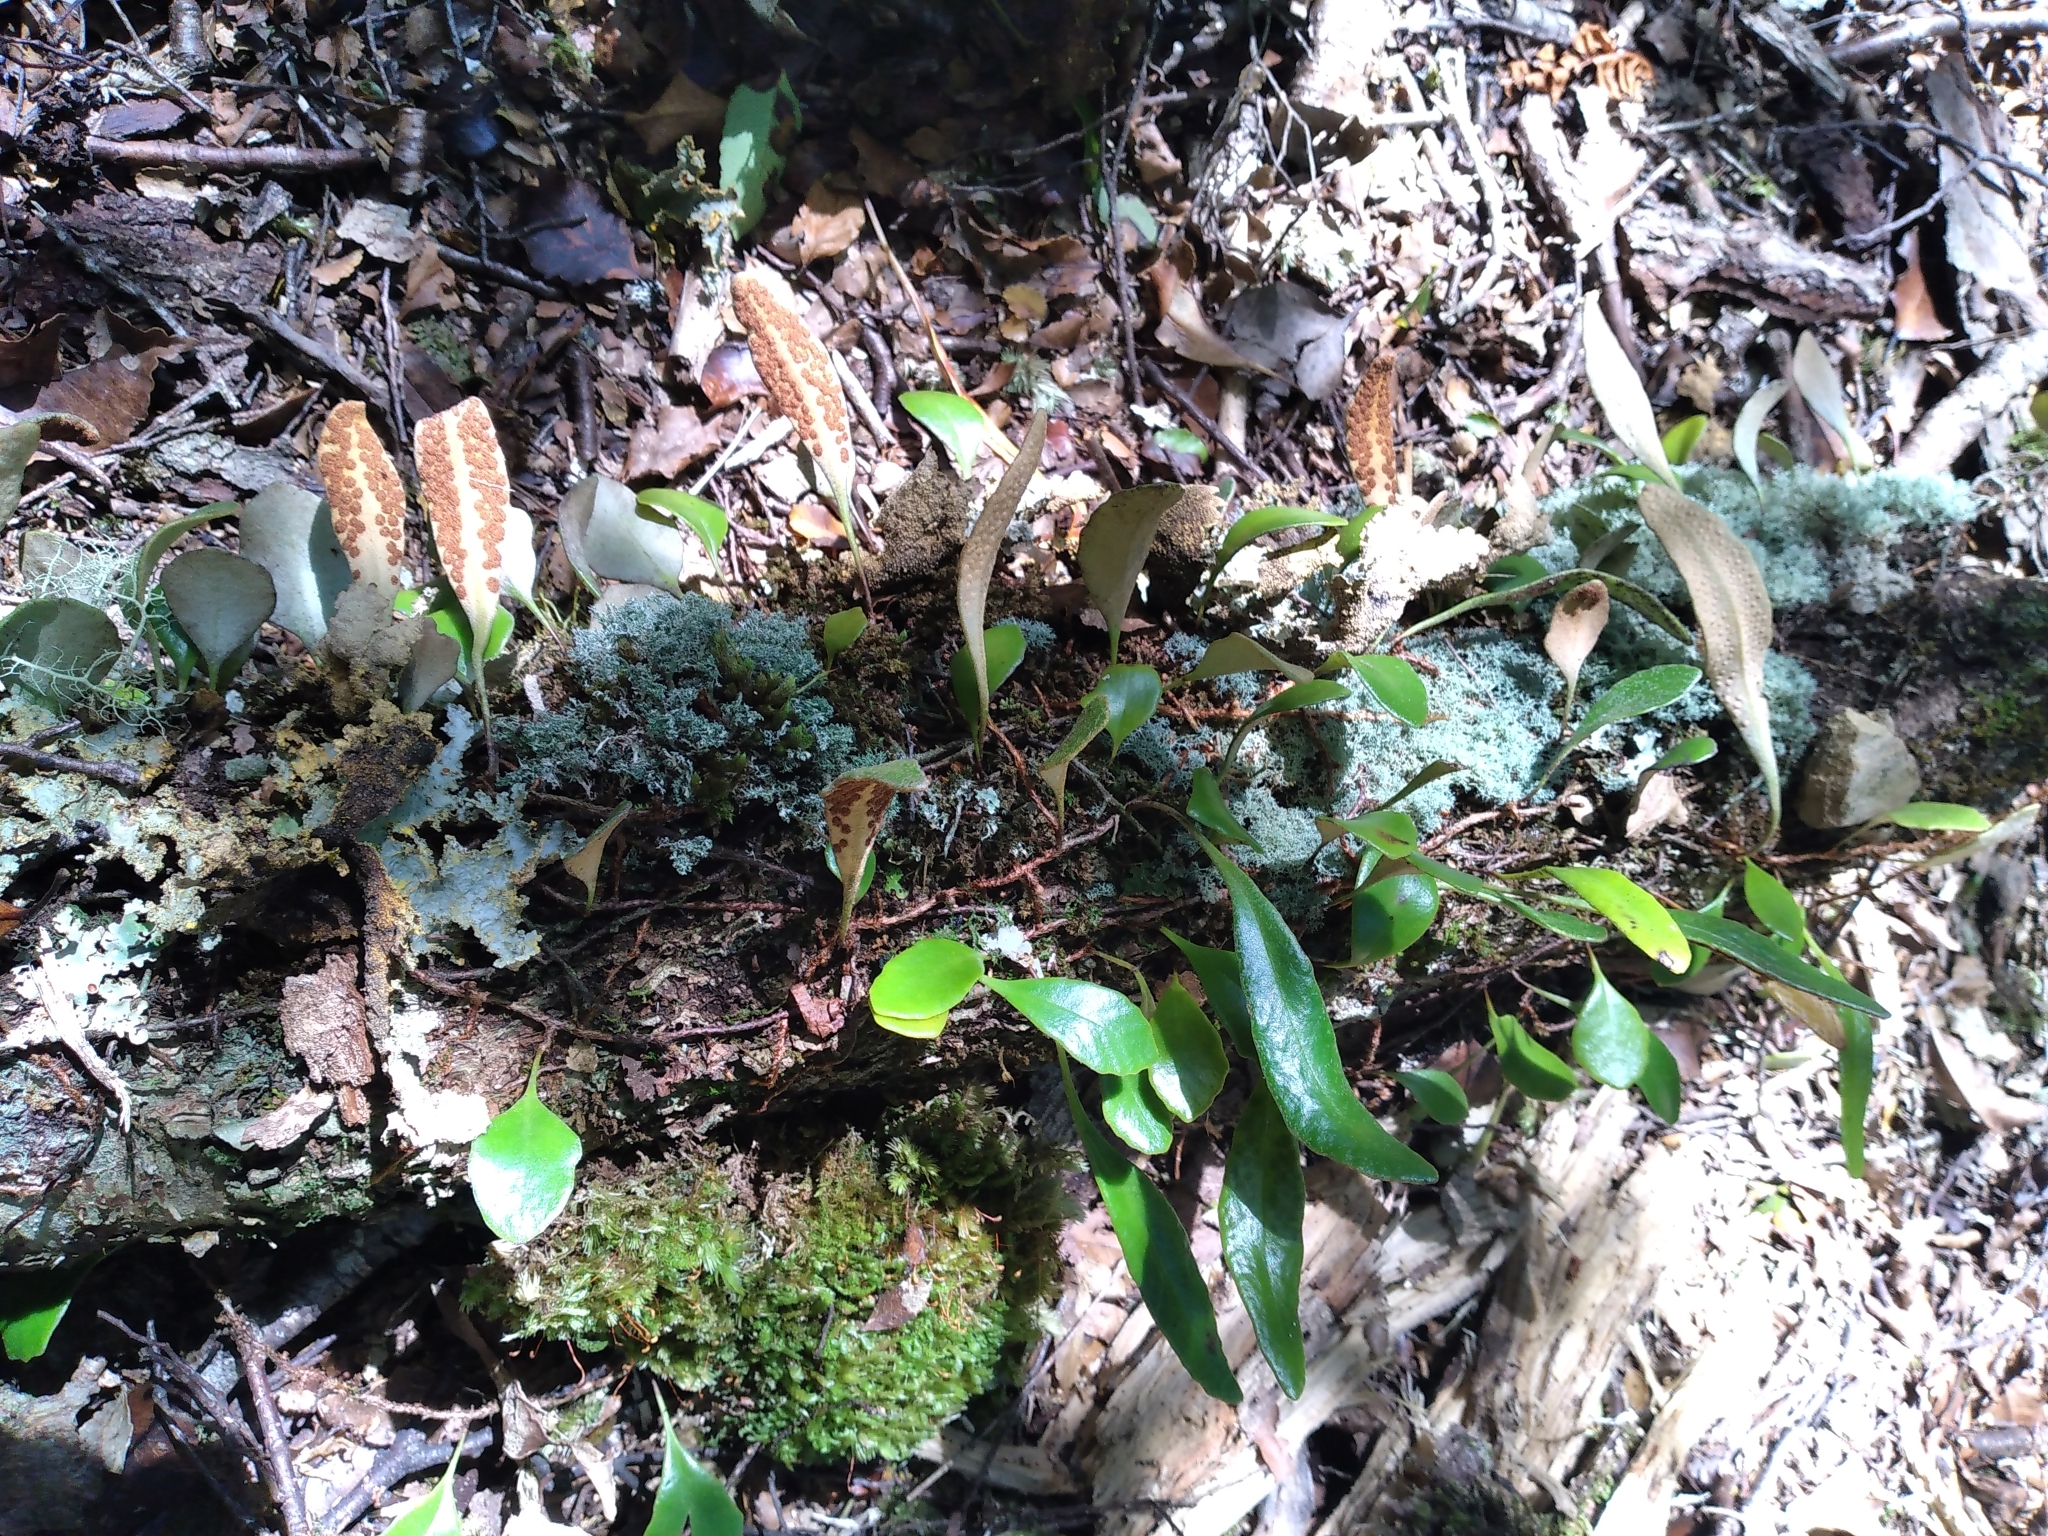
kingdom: Plantae
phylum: Tracheophyta
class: Polypodiopsida
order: Polypodiales
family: Polypodiaceae
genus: Pyrrosia
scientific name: Pyrrosia eleagnifolia
